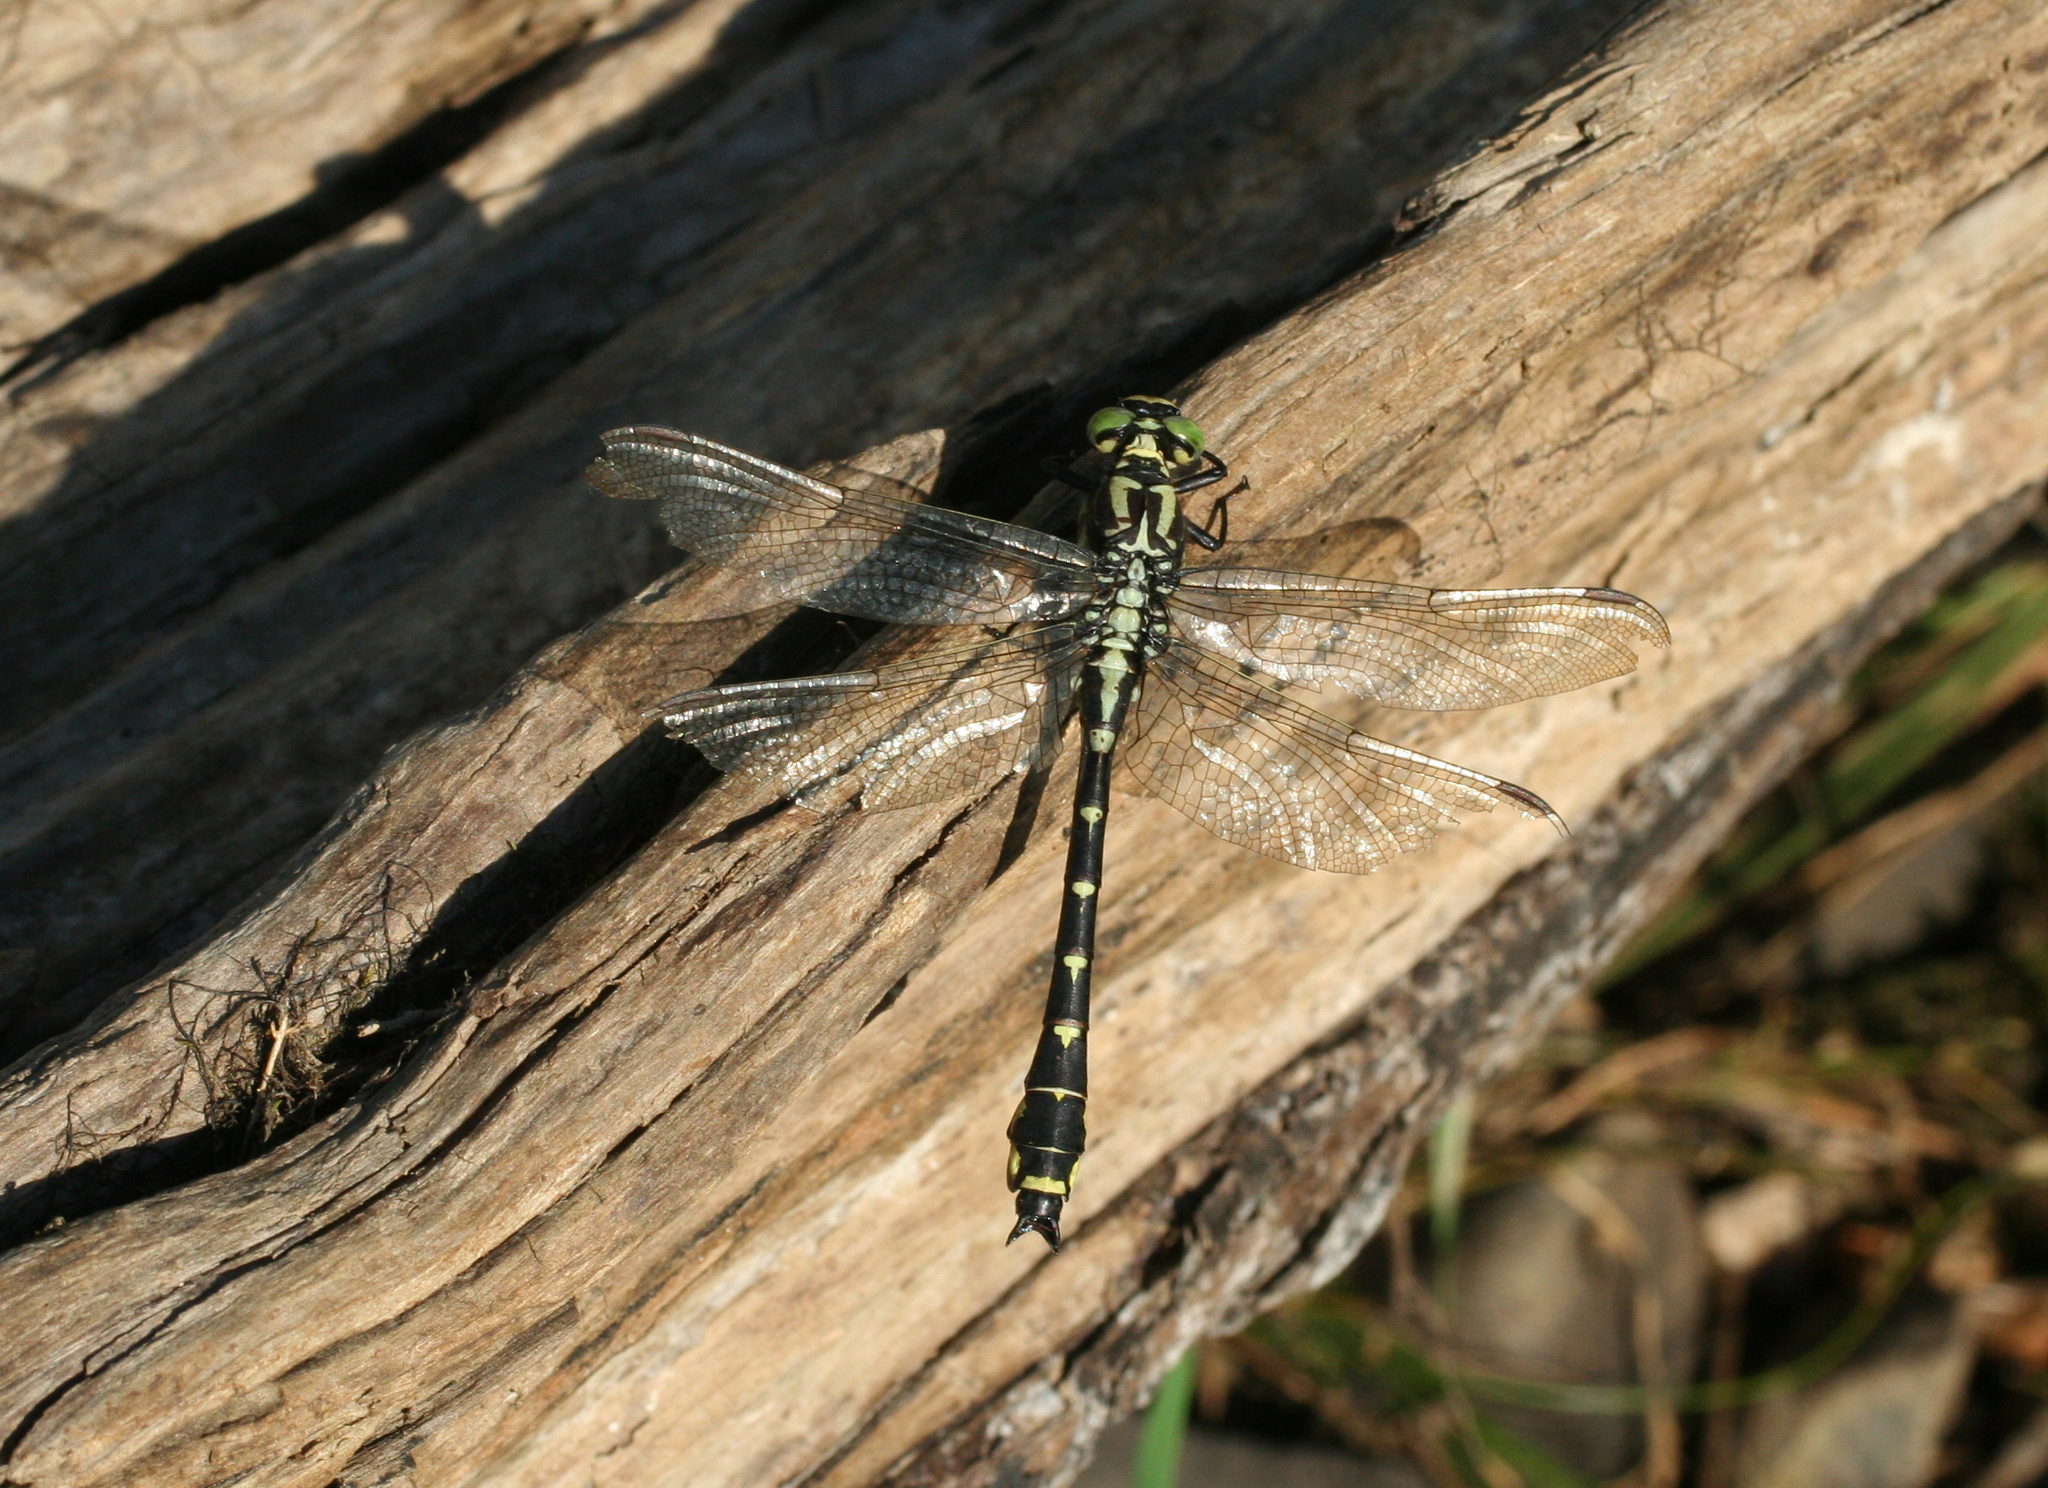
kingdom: Animalia
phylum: Arthropoda
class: Insecta
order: Odonata
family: Gomphidae
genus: Shaogomphus
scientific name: Shaogomphus schmidti
